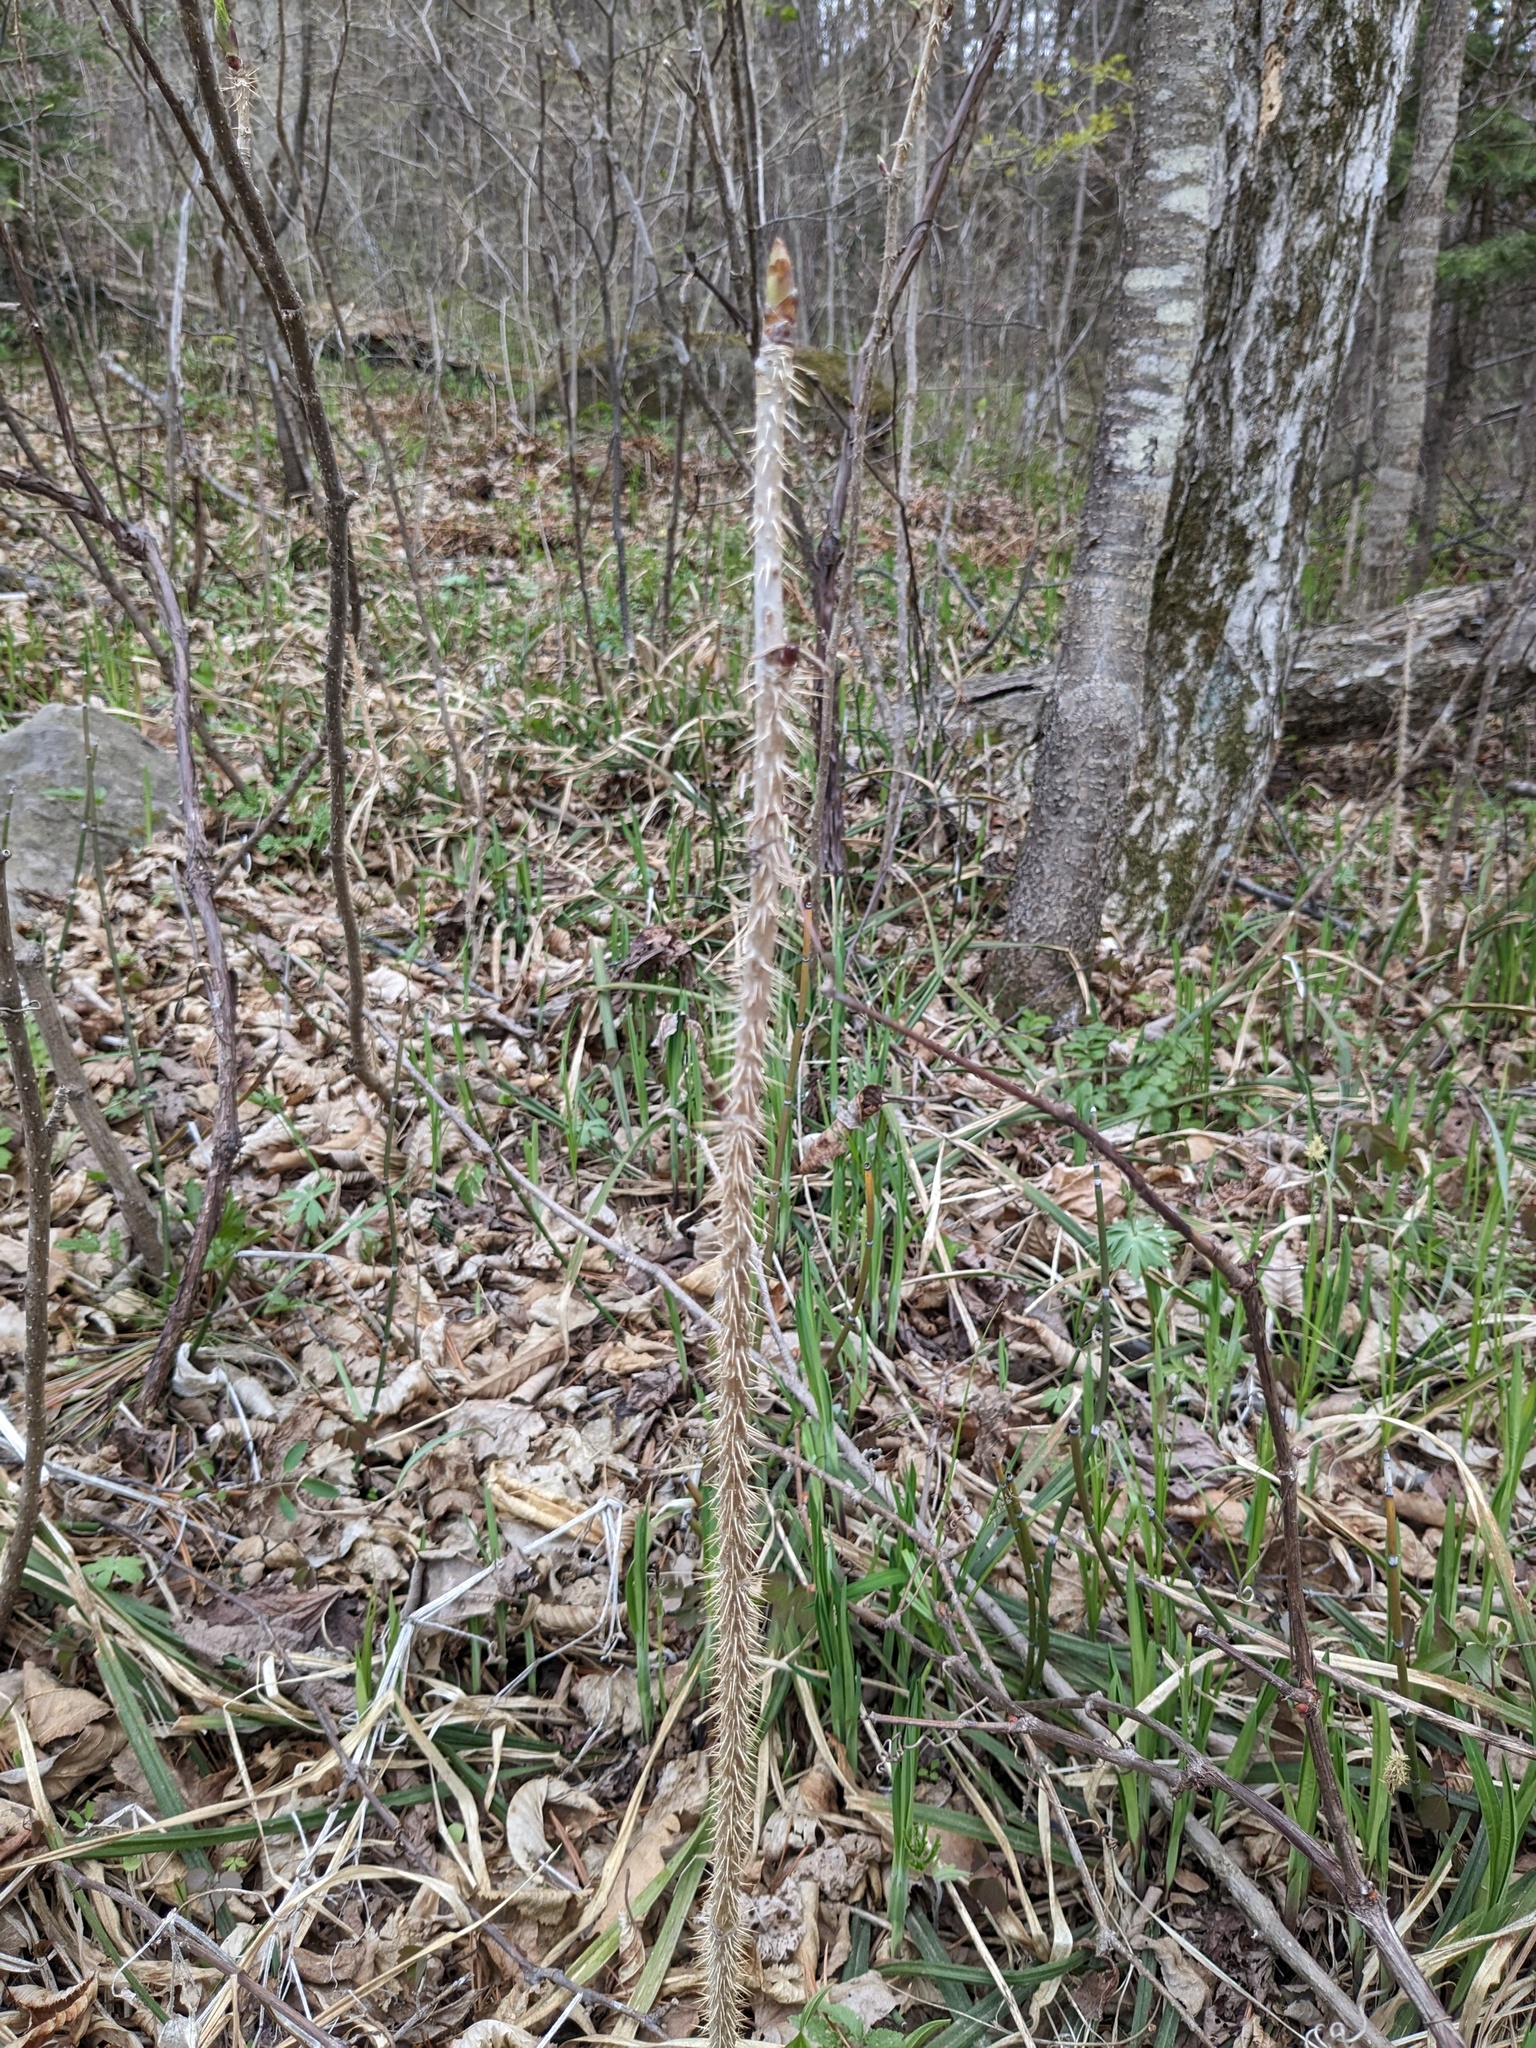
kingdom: Plantae
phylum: Tracheophyta
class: Magnoliopsida
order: Apiales
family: Araliaceae
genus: Eleutherococcus
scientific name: Eleutherococcus senticosus
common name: Siberian-ginseng
